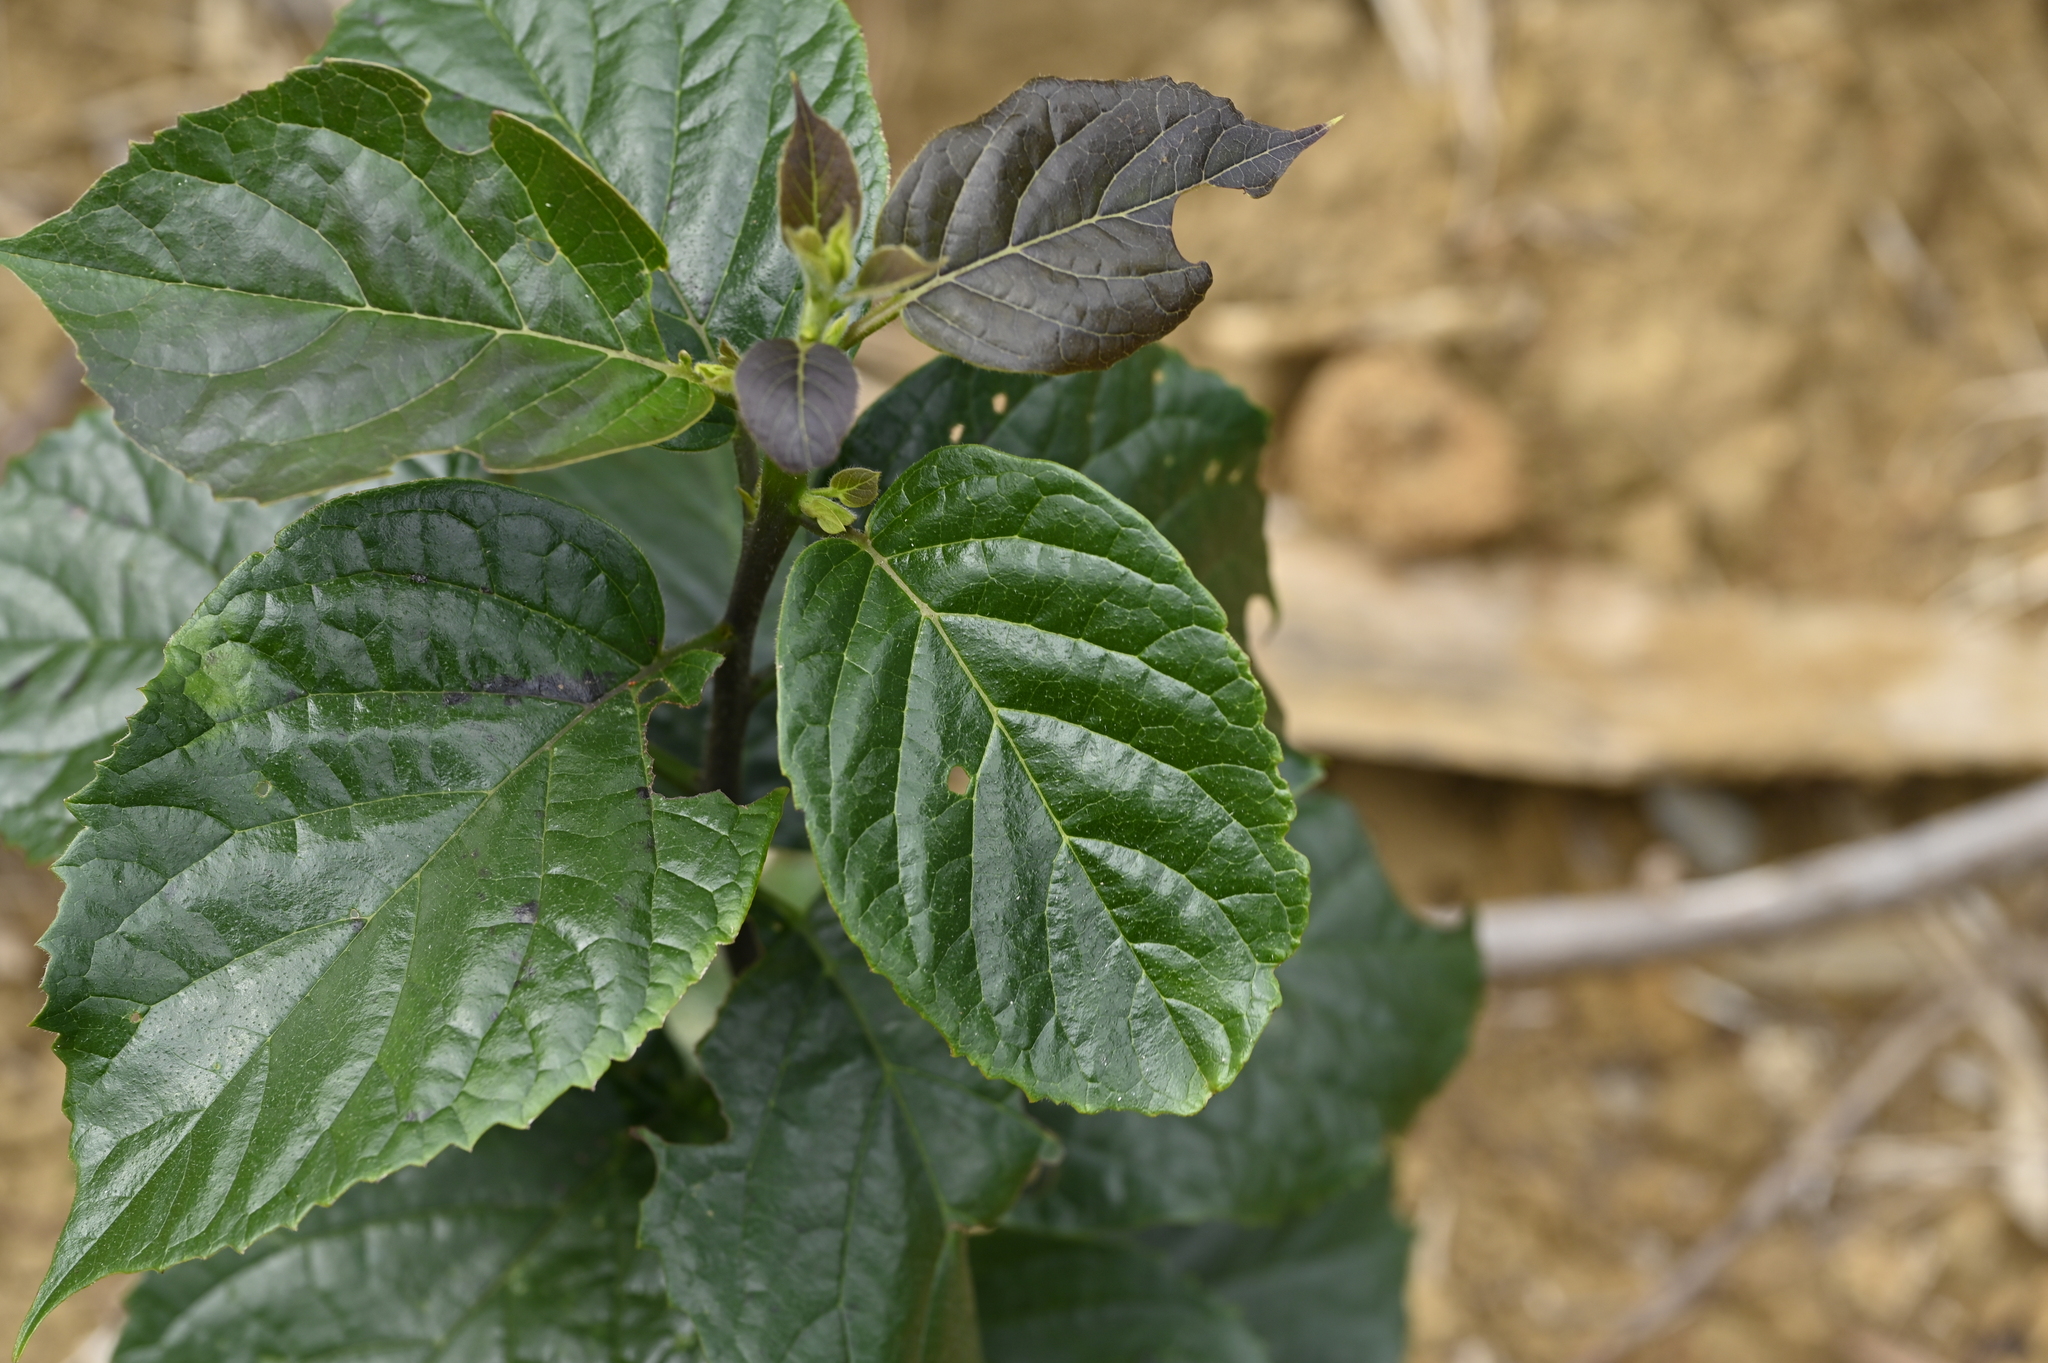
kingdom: Plantae
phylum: Tracheophyta
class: Magnoliopsida
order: Boraginales
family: Ehretiaceae
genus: Ehretia
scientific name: Ehretia resinosa
